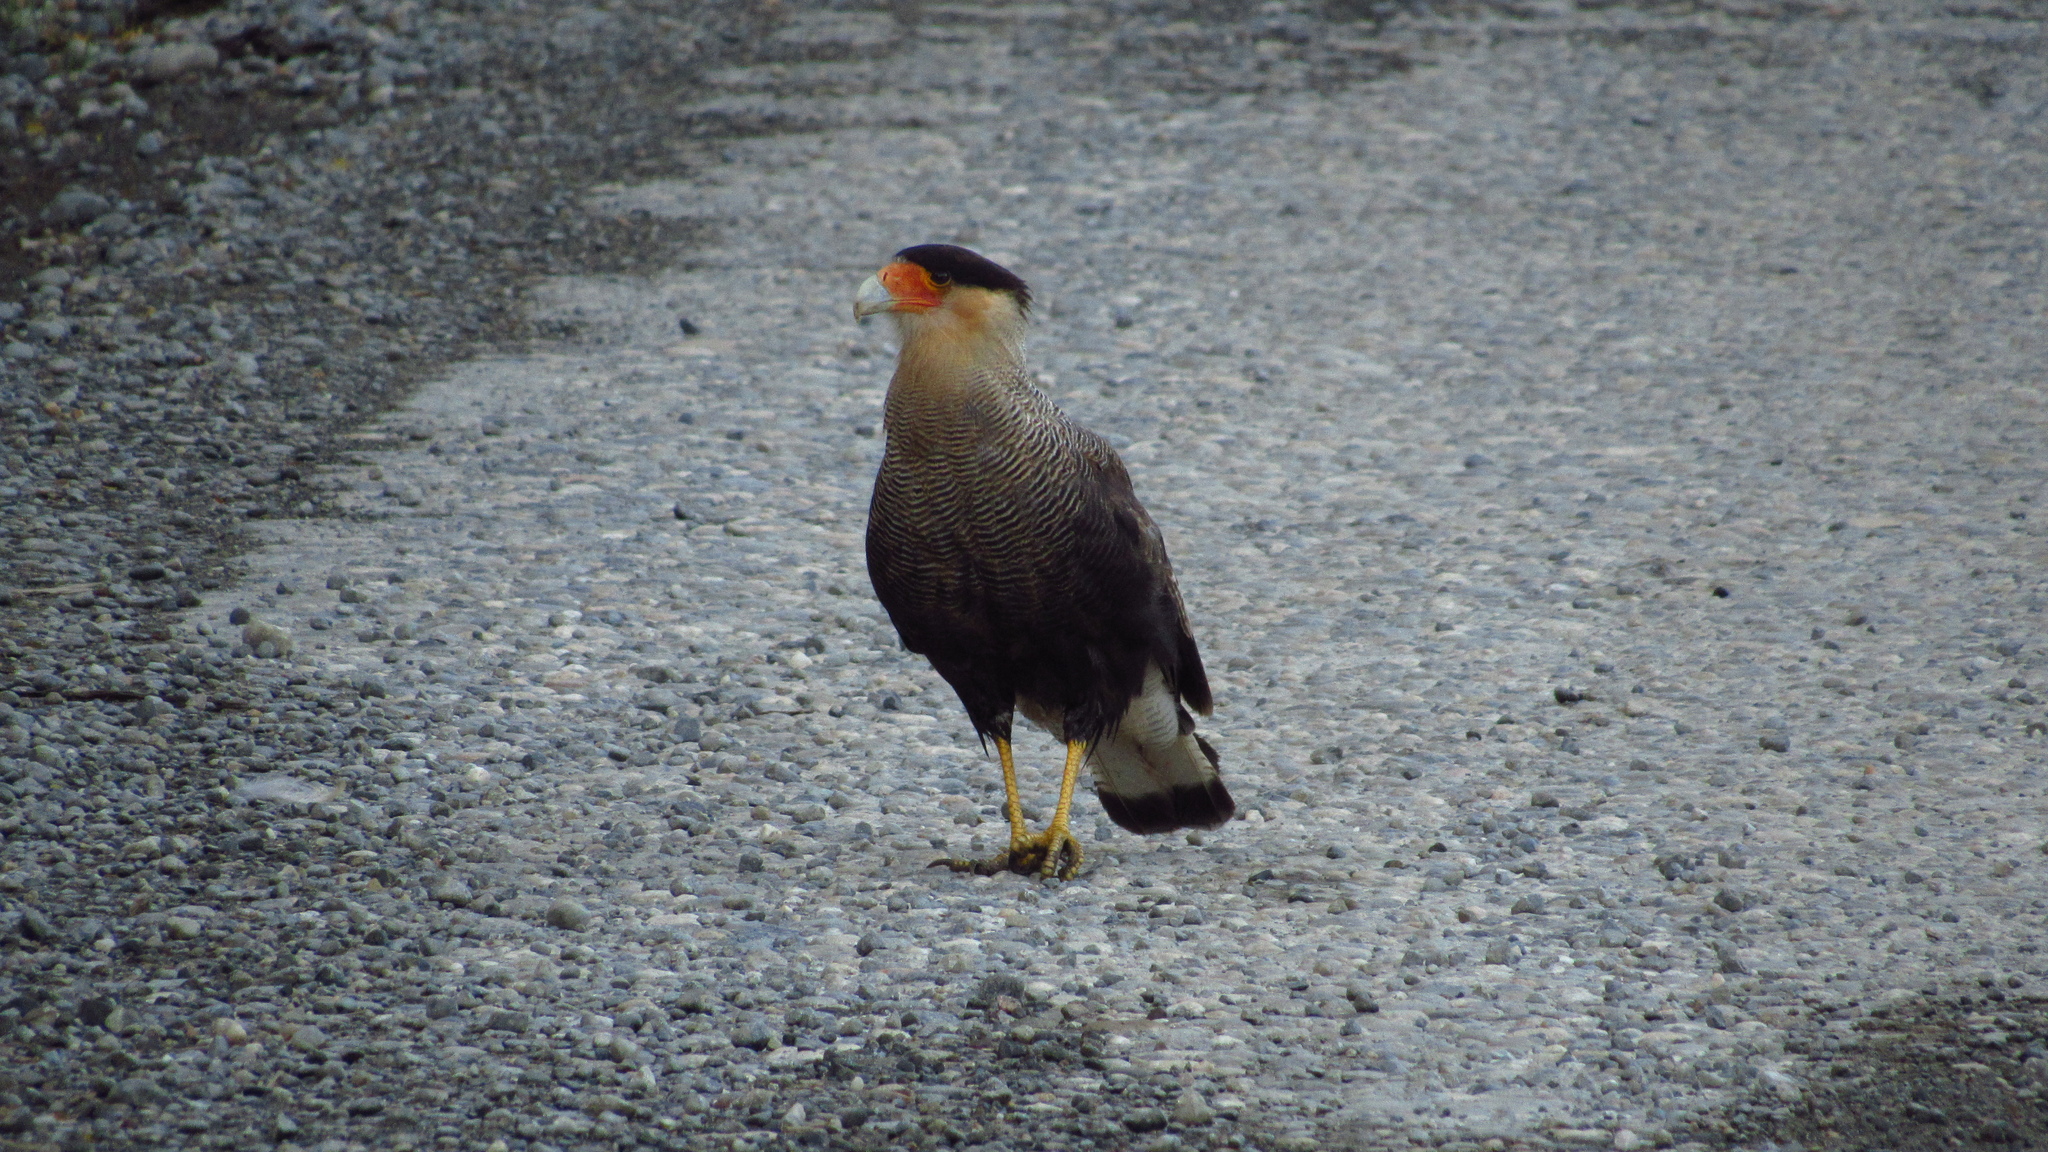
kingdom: Animalia
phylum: Chordata
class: Aves
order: Falconiformes
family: Falconidae
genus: Caracara
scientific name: Caracara plancus
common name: Southern caracara
